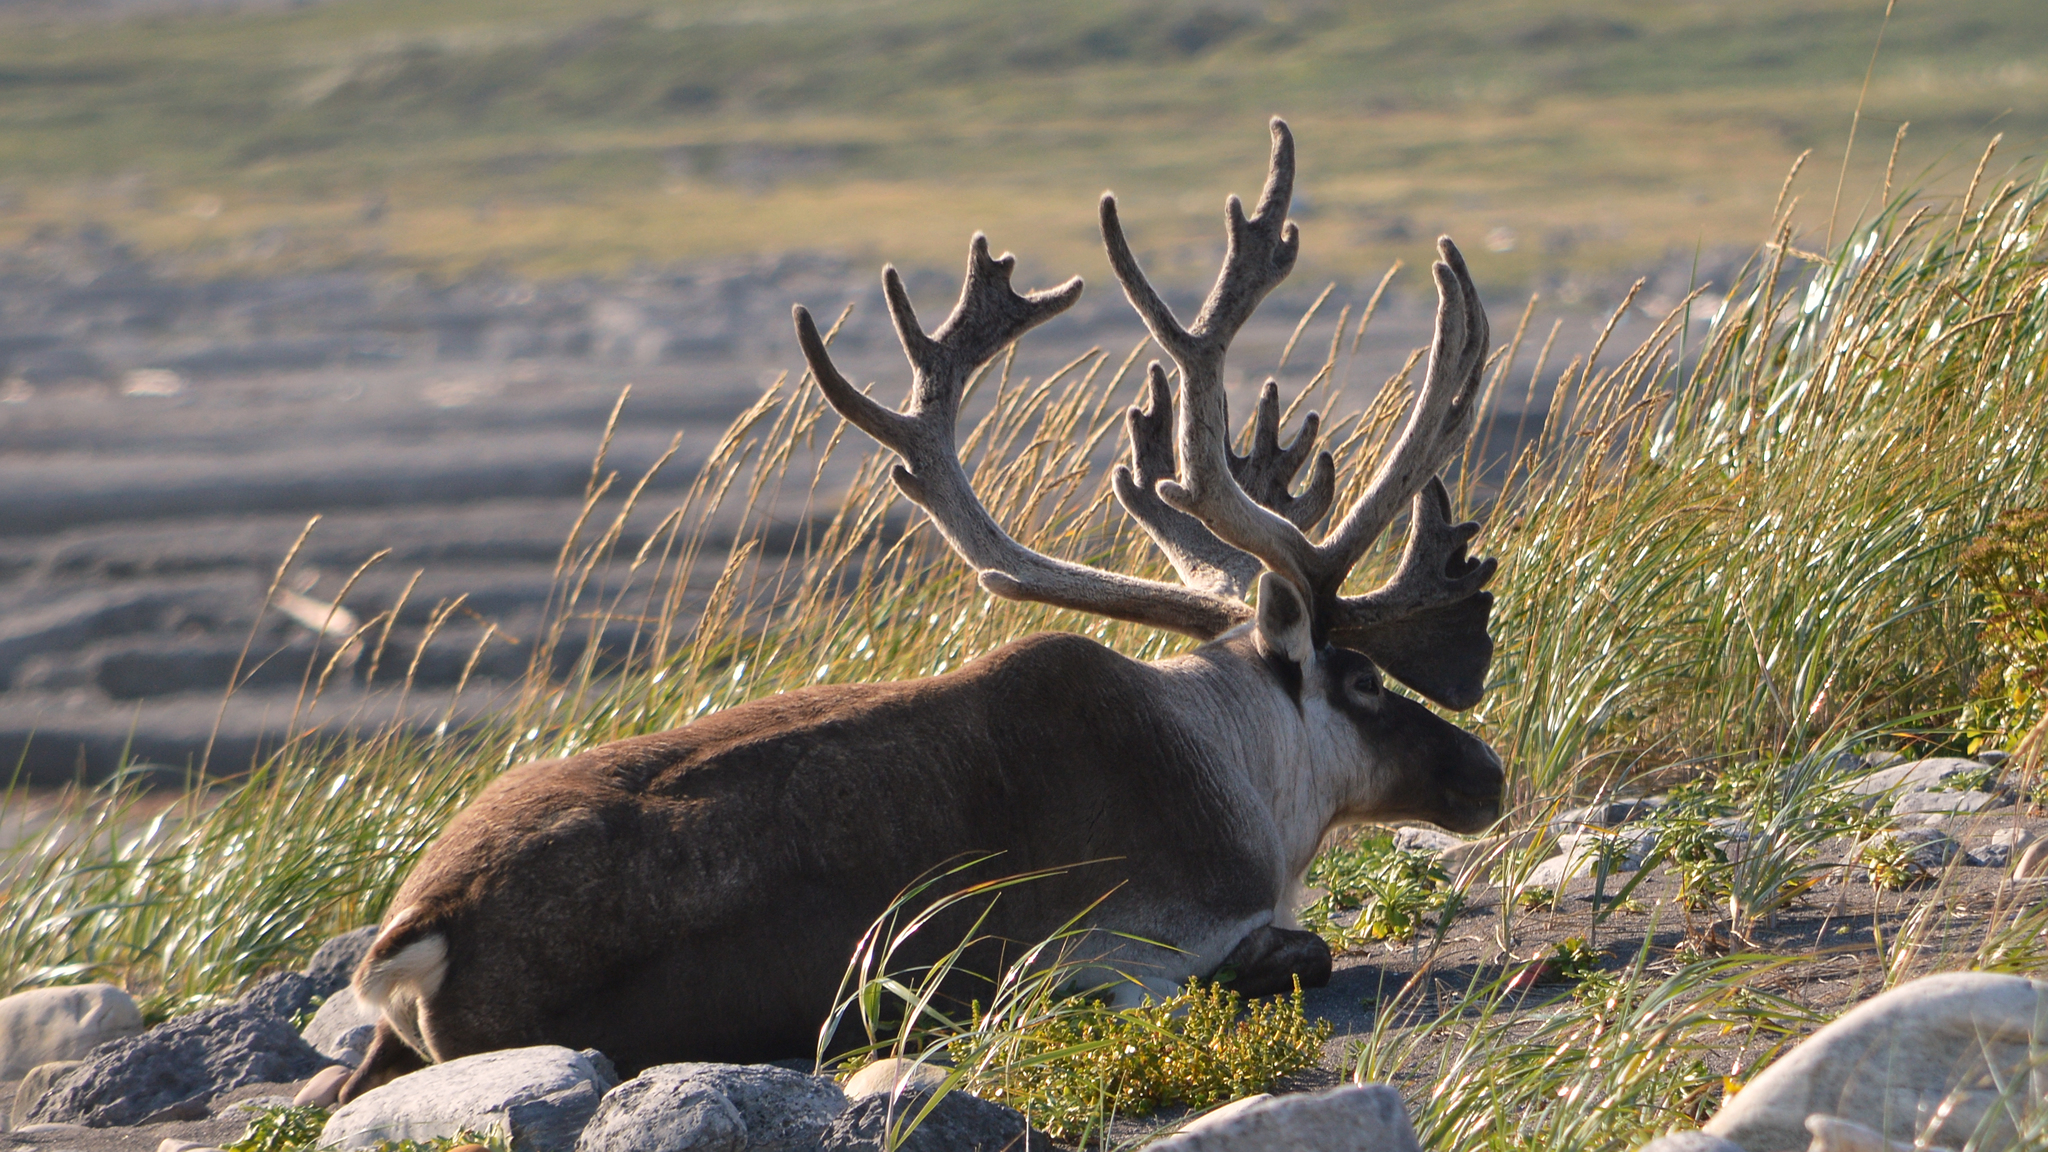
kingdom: Animalia
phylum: Chordata
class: Mammalia
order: Artiodactyla
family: Cervidae
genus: Rangifer
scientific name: Rangifer tarandus
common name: Reindeer
